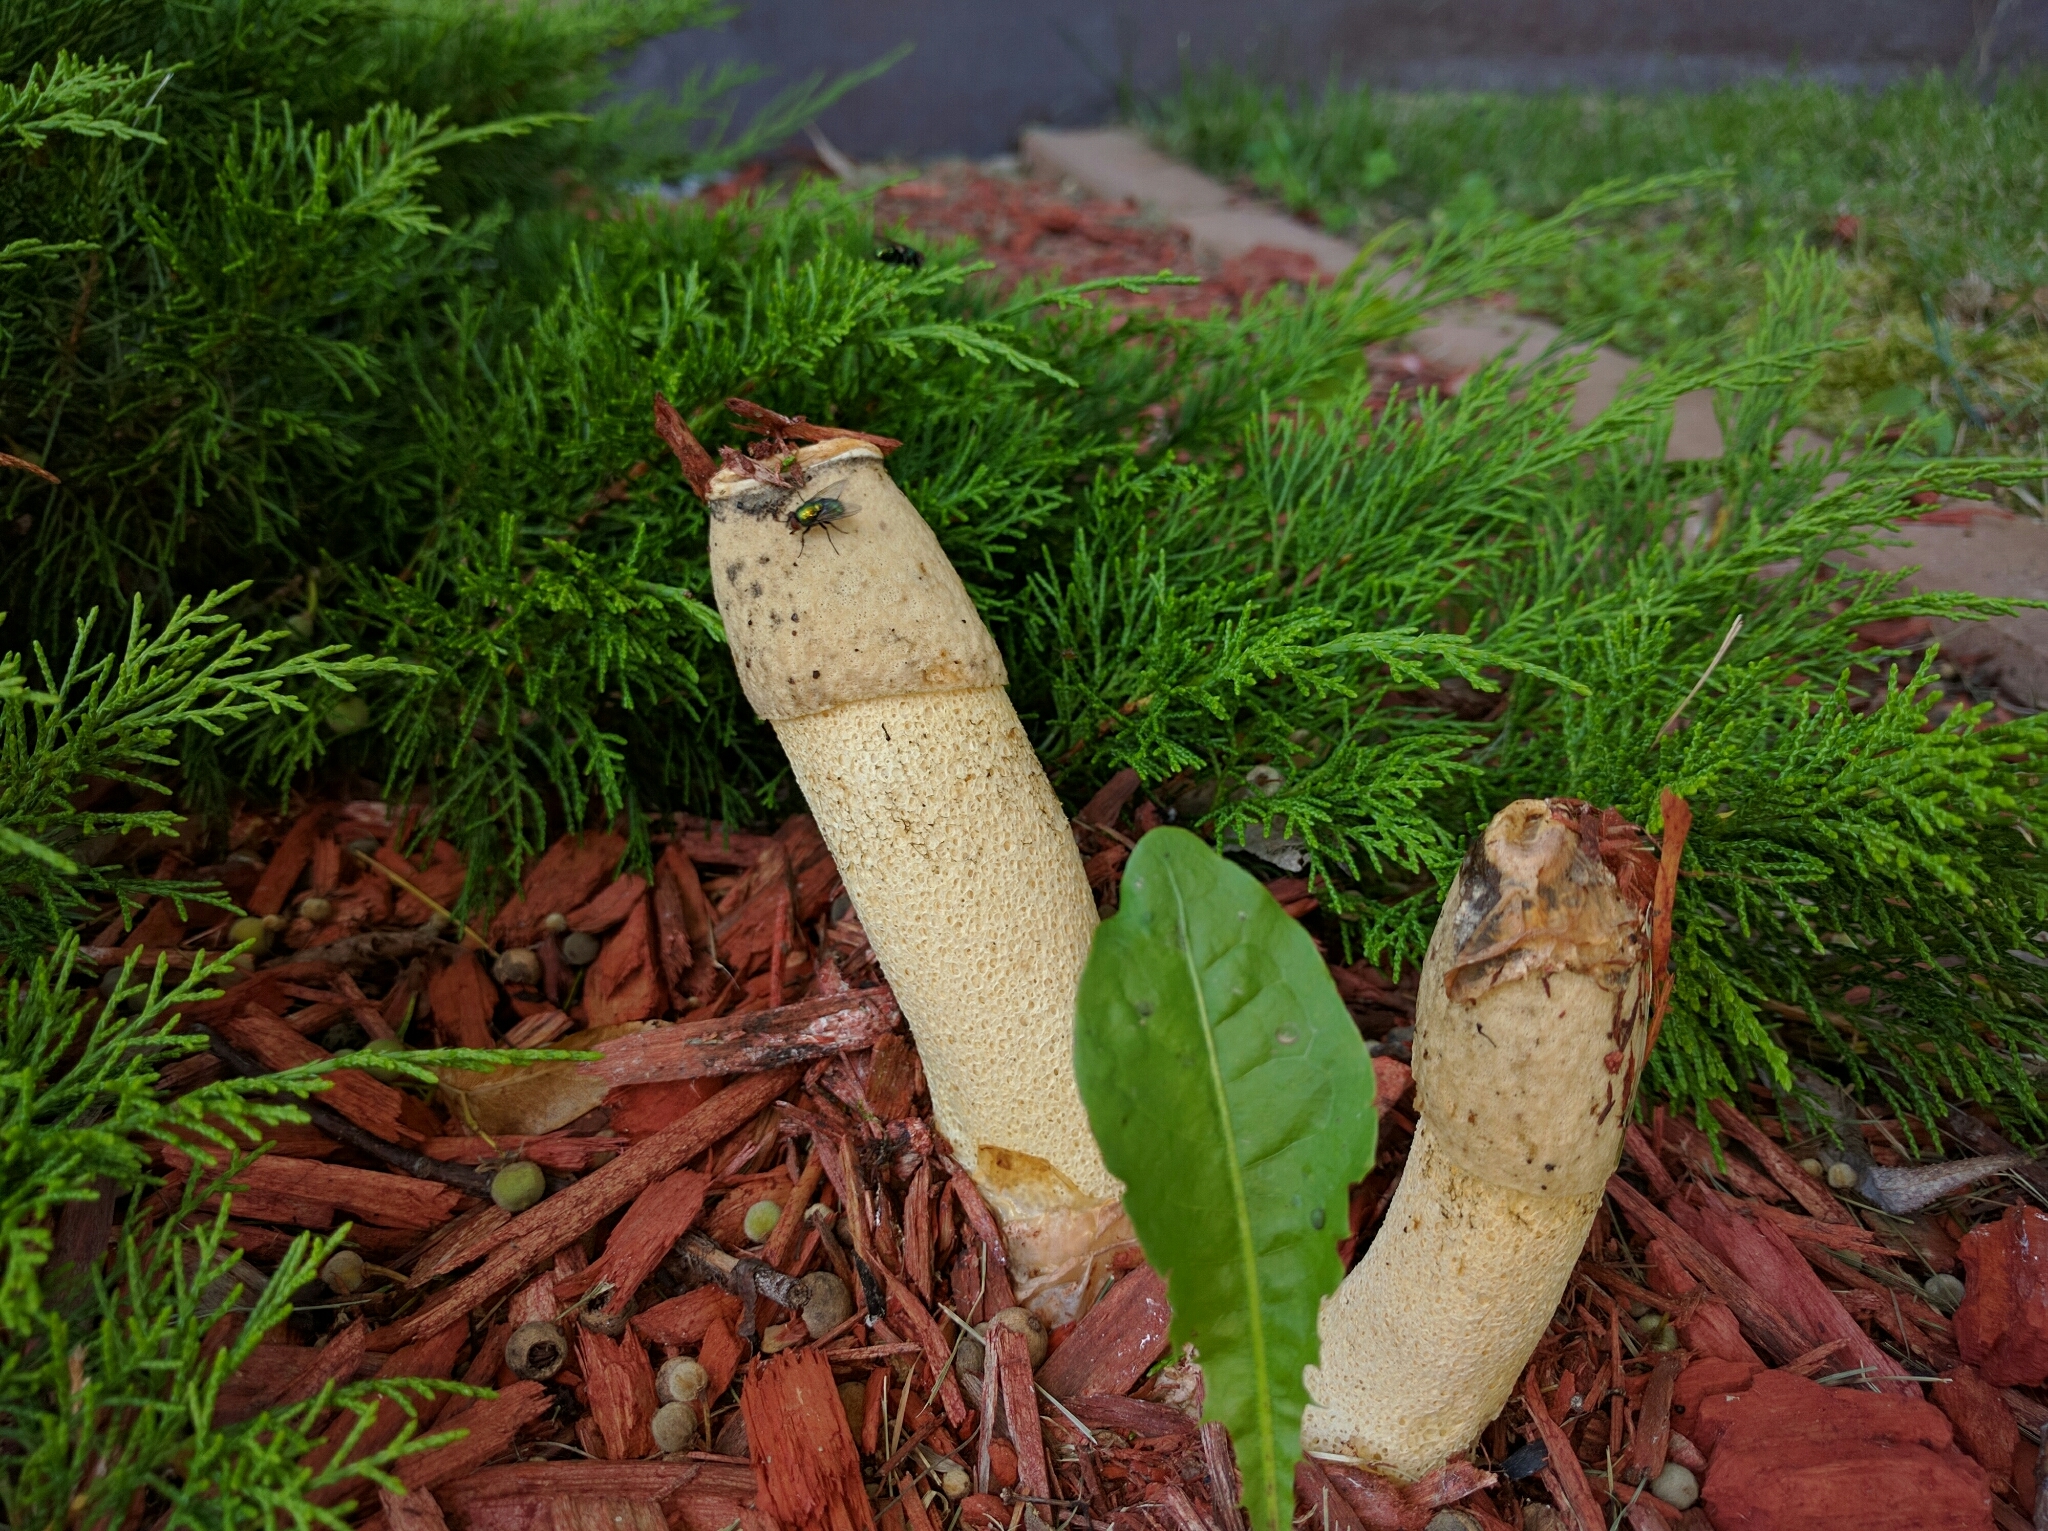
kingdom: Fungi
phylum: Basidiomycota
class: Agaricomycetes
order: Phallales
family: Phallaceae
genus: Phallus
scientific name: Phallus ravenelii
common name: Ravenel's stinkhorn
